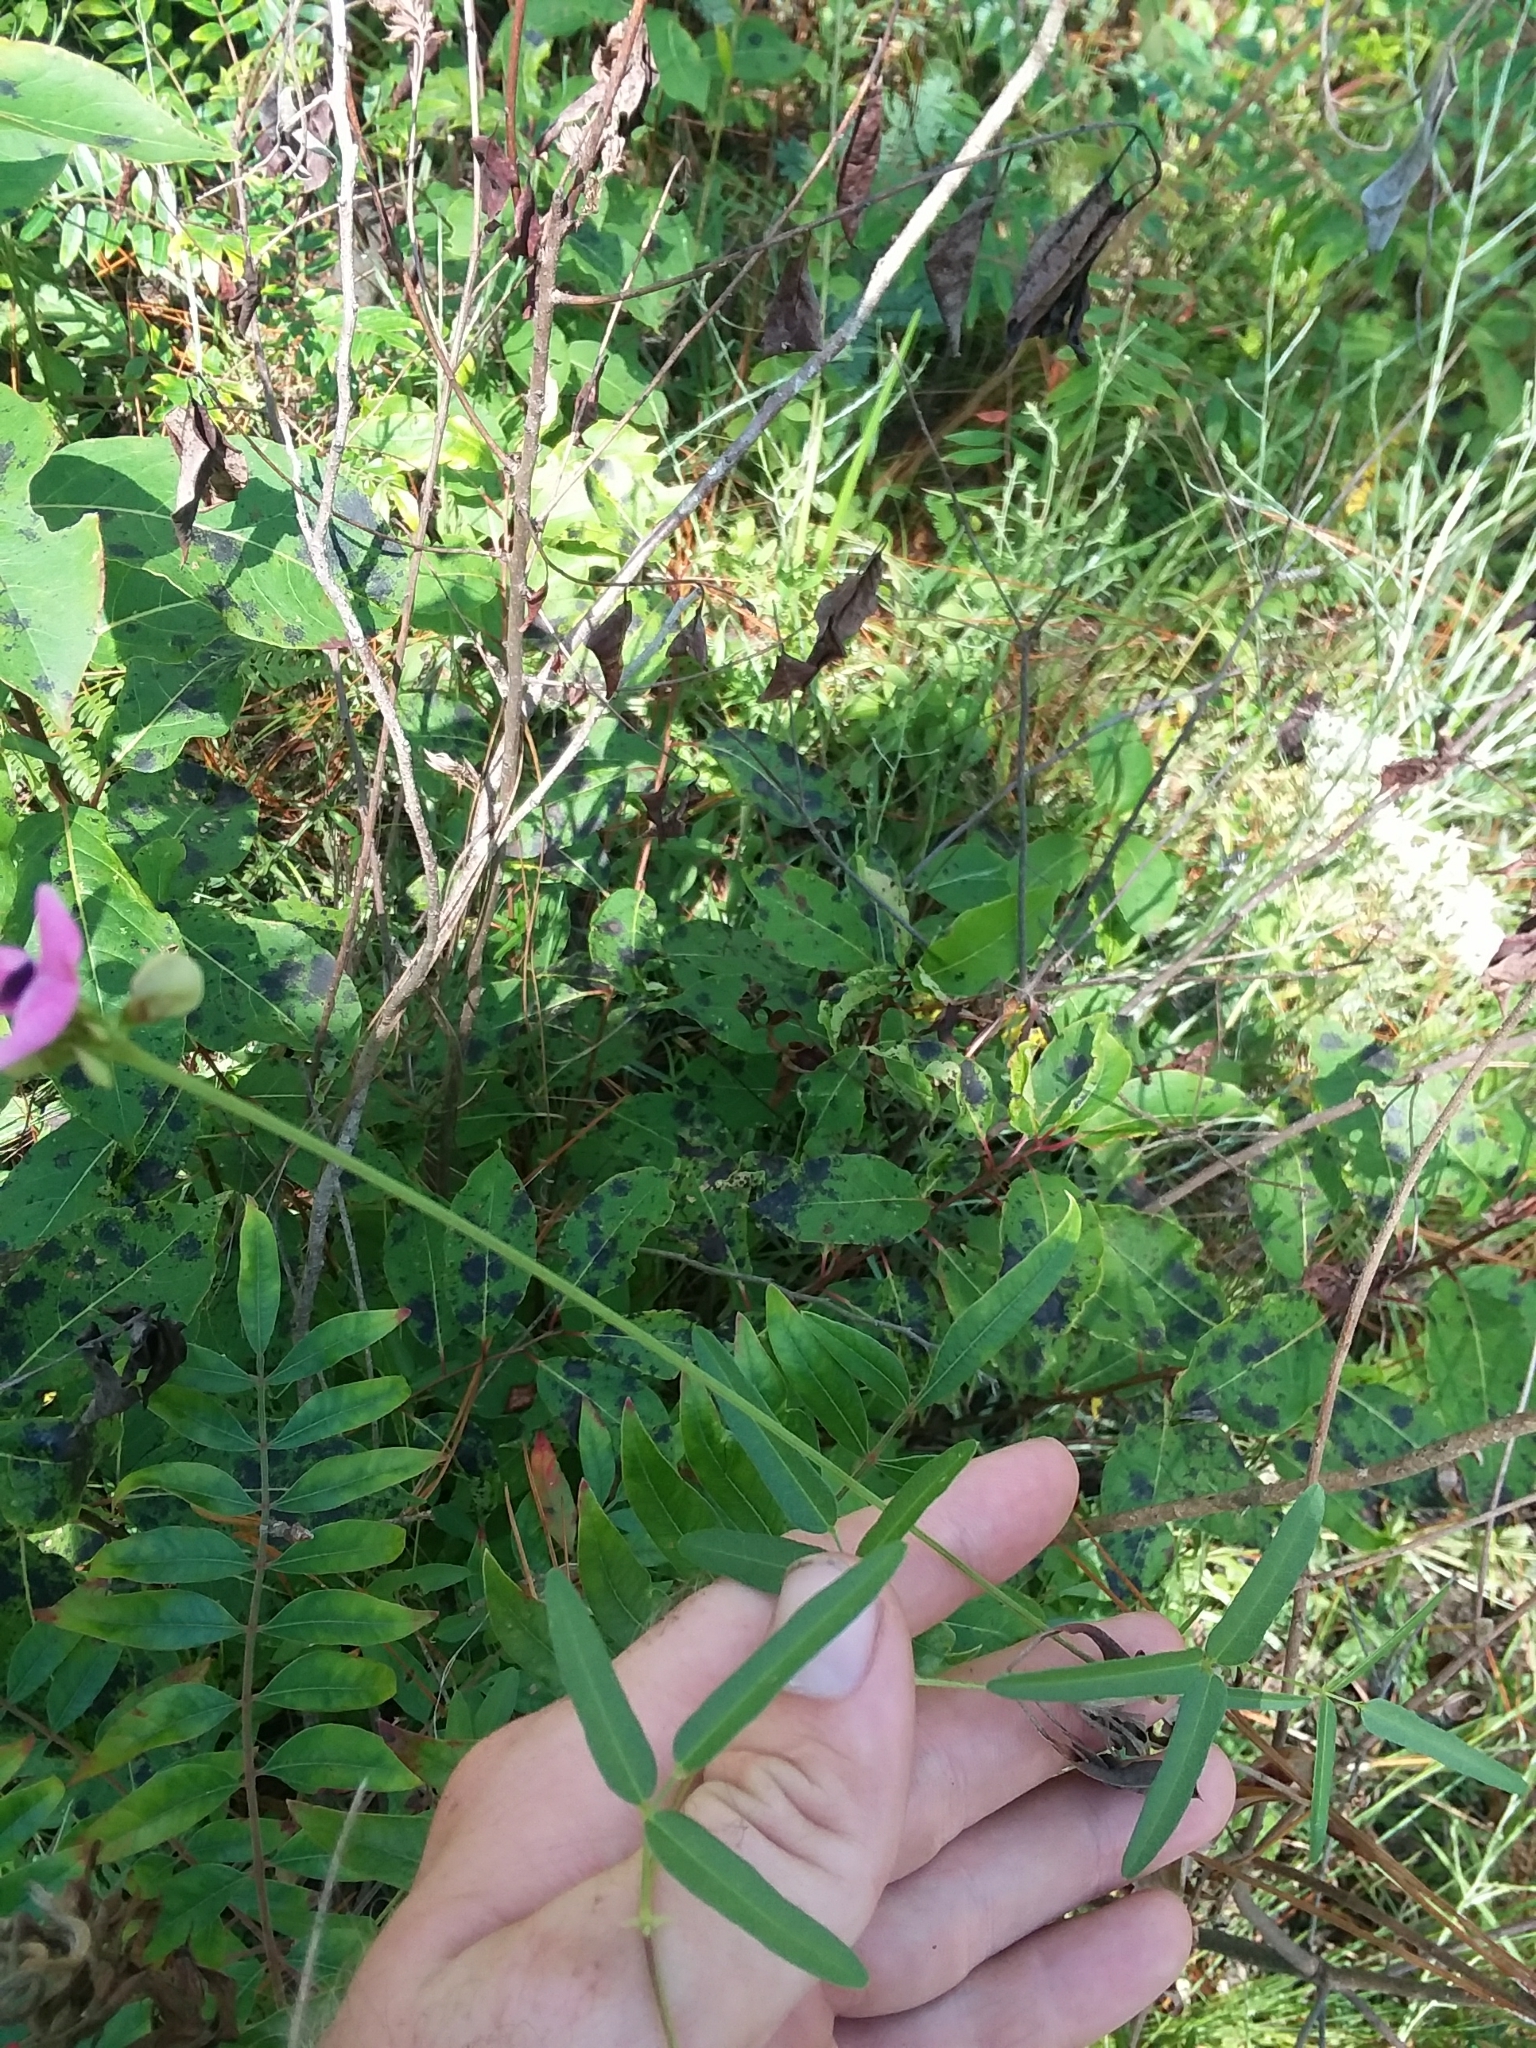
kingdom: Plantae
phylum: Tracheophyta
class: Magnoliopsida
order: Fabales
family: Fabaceae
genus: Strophostyles
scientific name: Strophostyles umbellata
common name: Perennial wild bean
